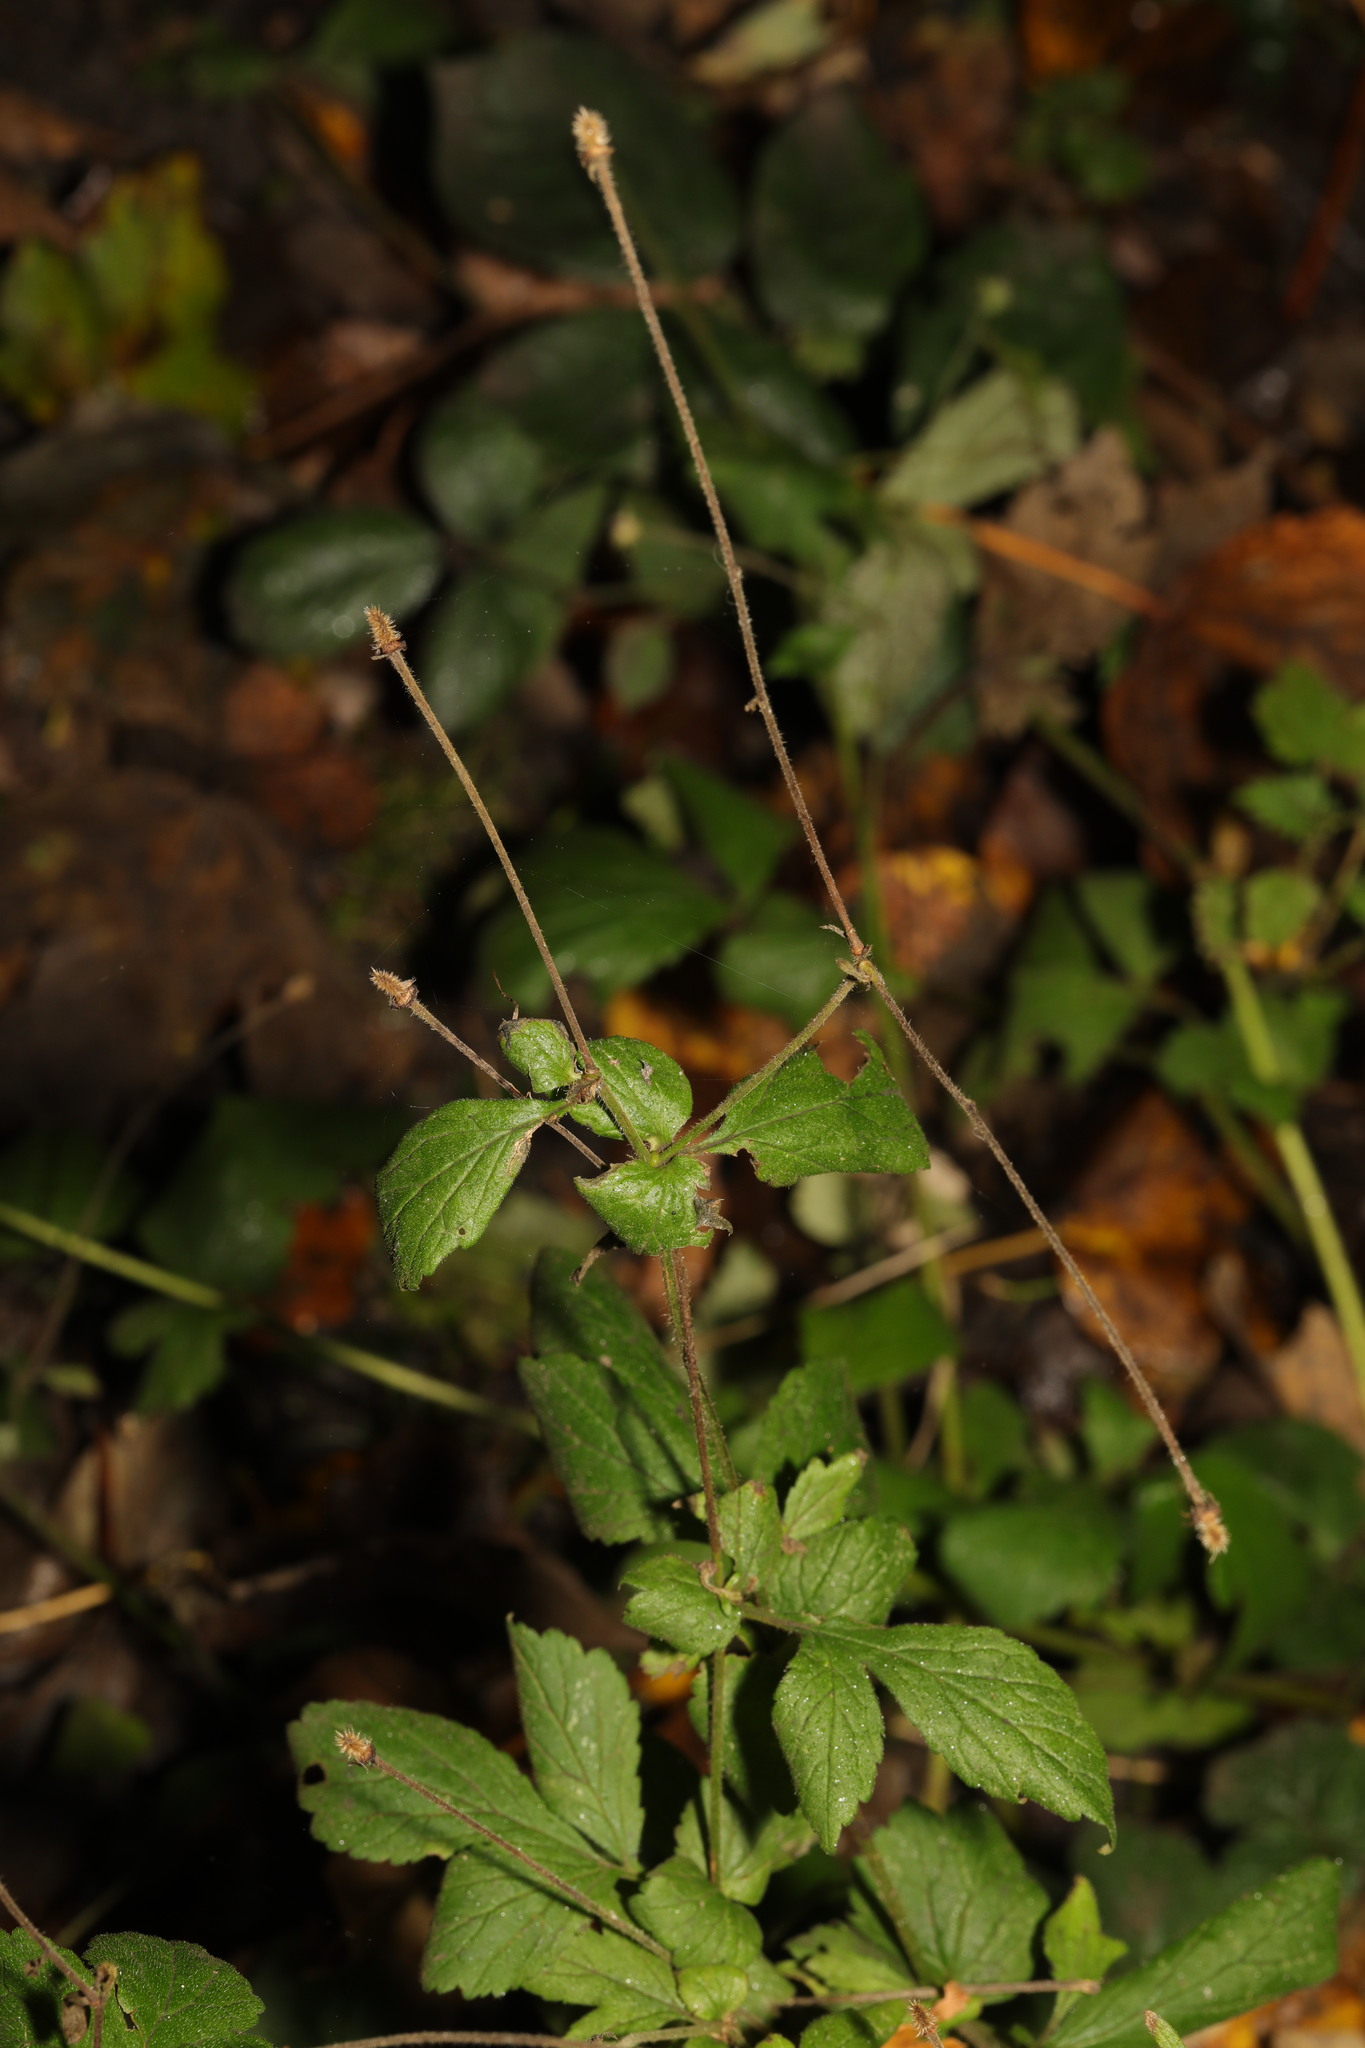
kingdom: Plantae
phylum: Tracheophyta
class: Magnoliopsida
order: Rosales
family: Rosaceae
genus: Geum
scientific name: Geum urbanum
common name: Wood avens
